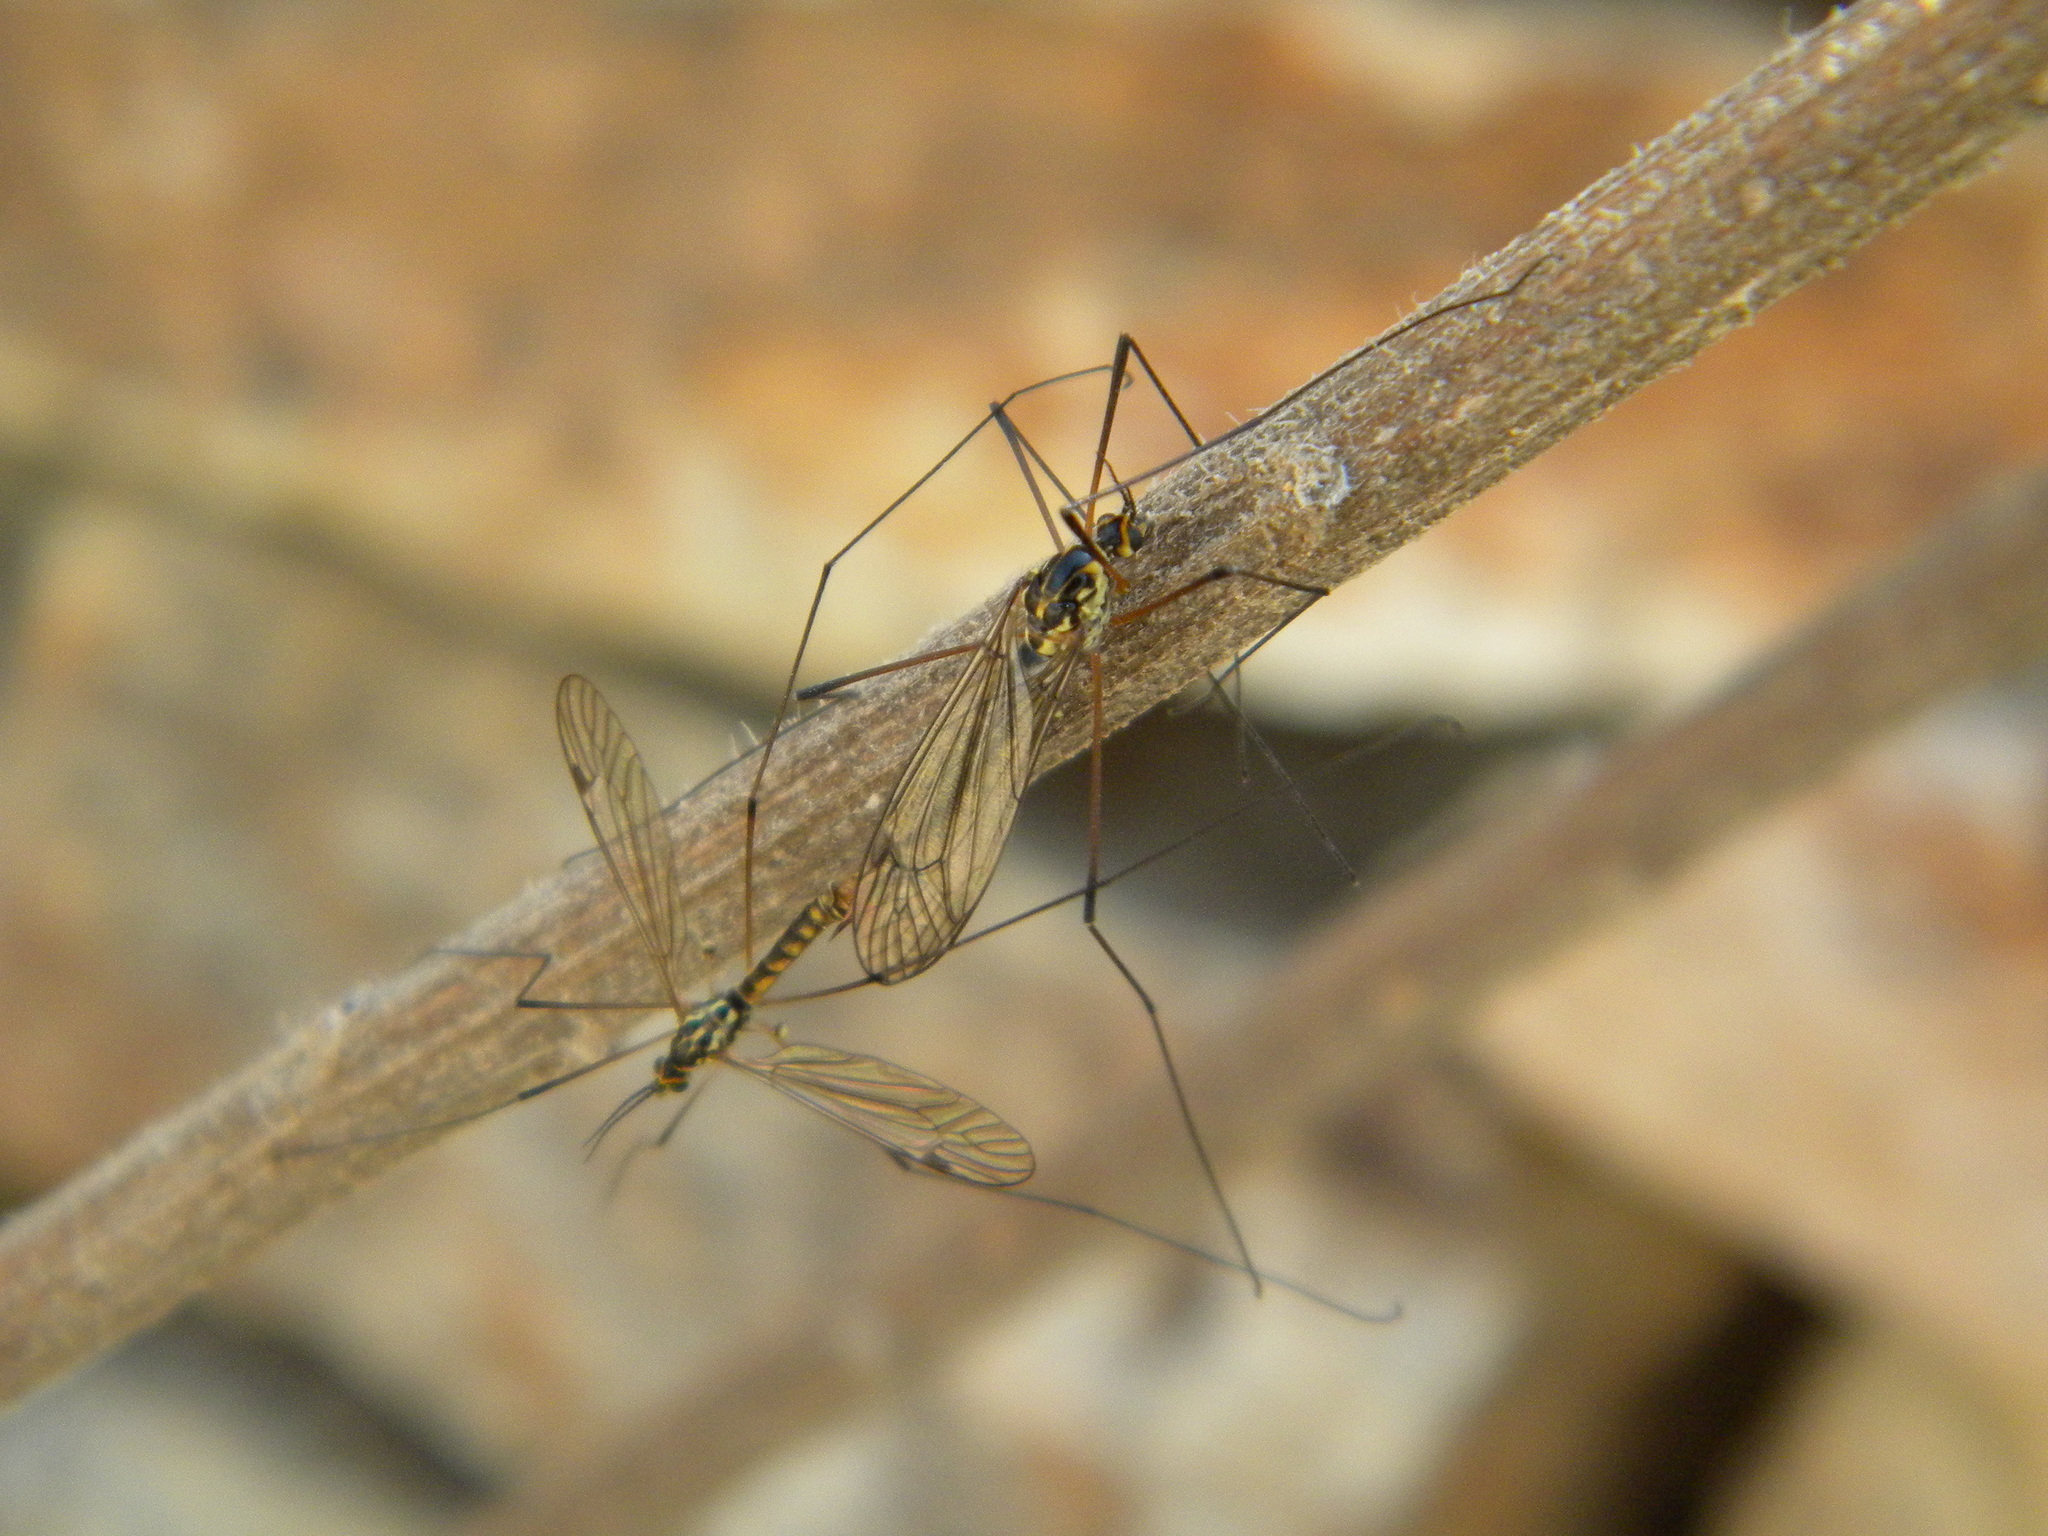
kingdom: Animalia
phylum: Arthropoda
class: Insecta
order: Diptera
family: Tipulidae
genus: Nephrotoma
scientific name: Nephrotoma theowaldi
